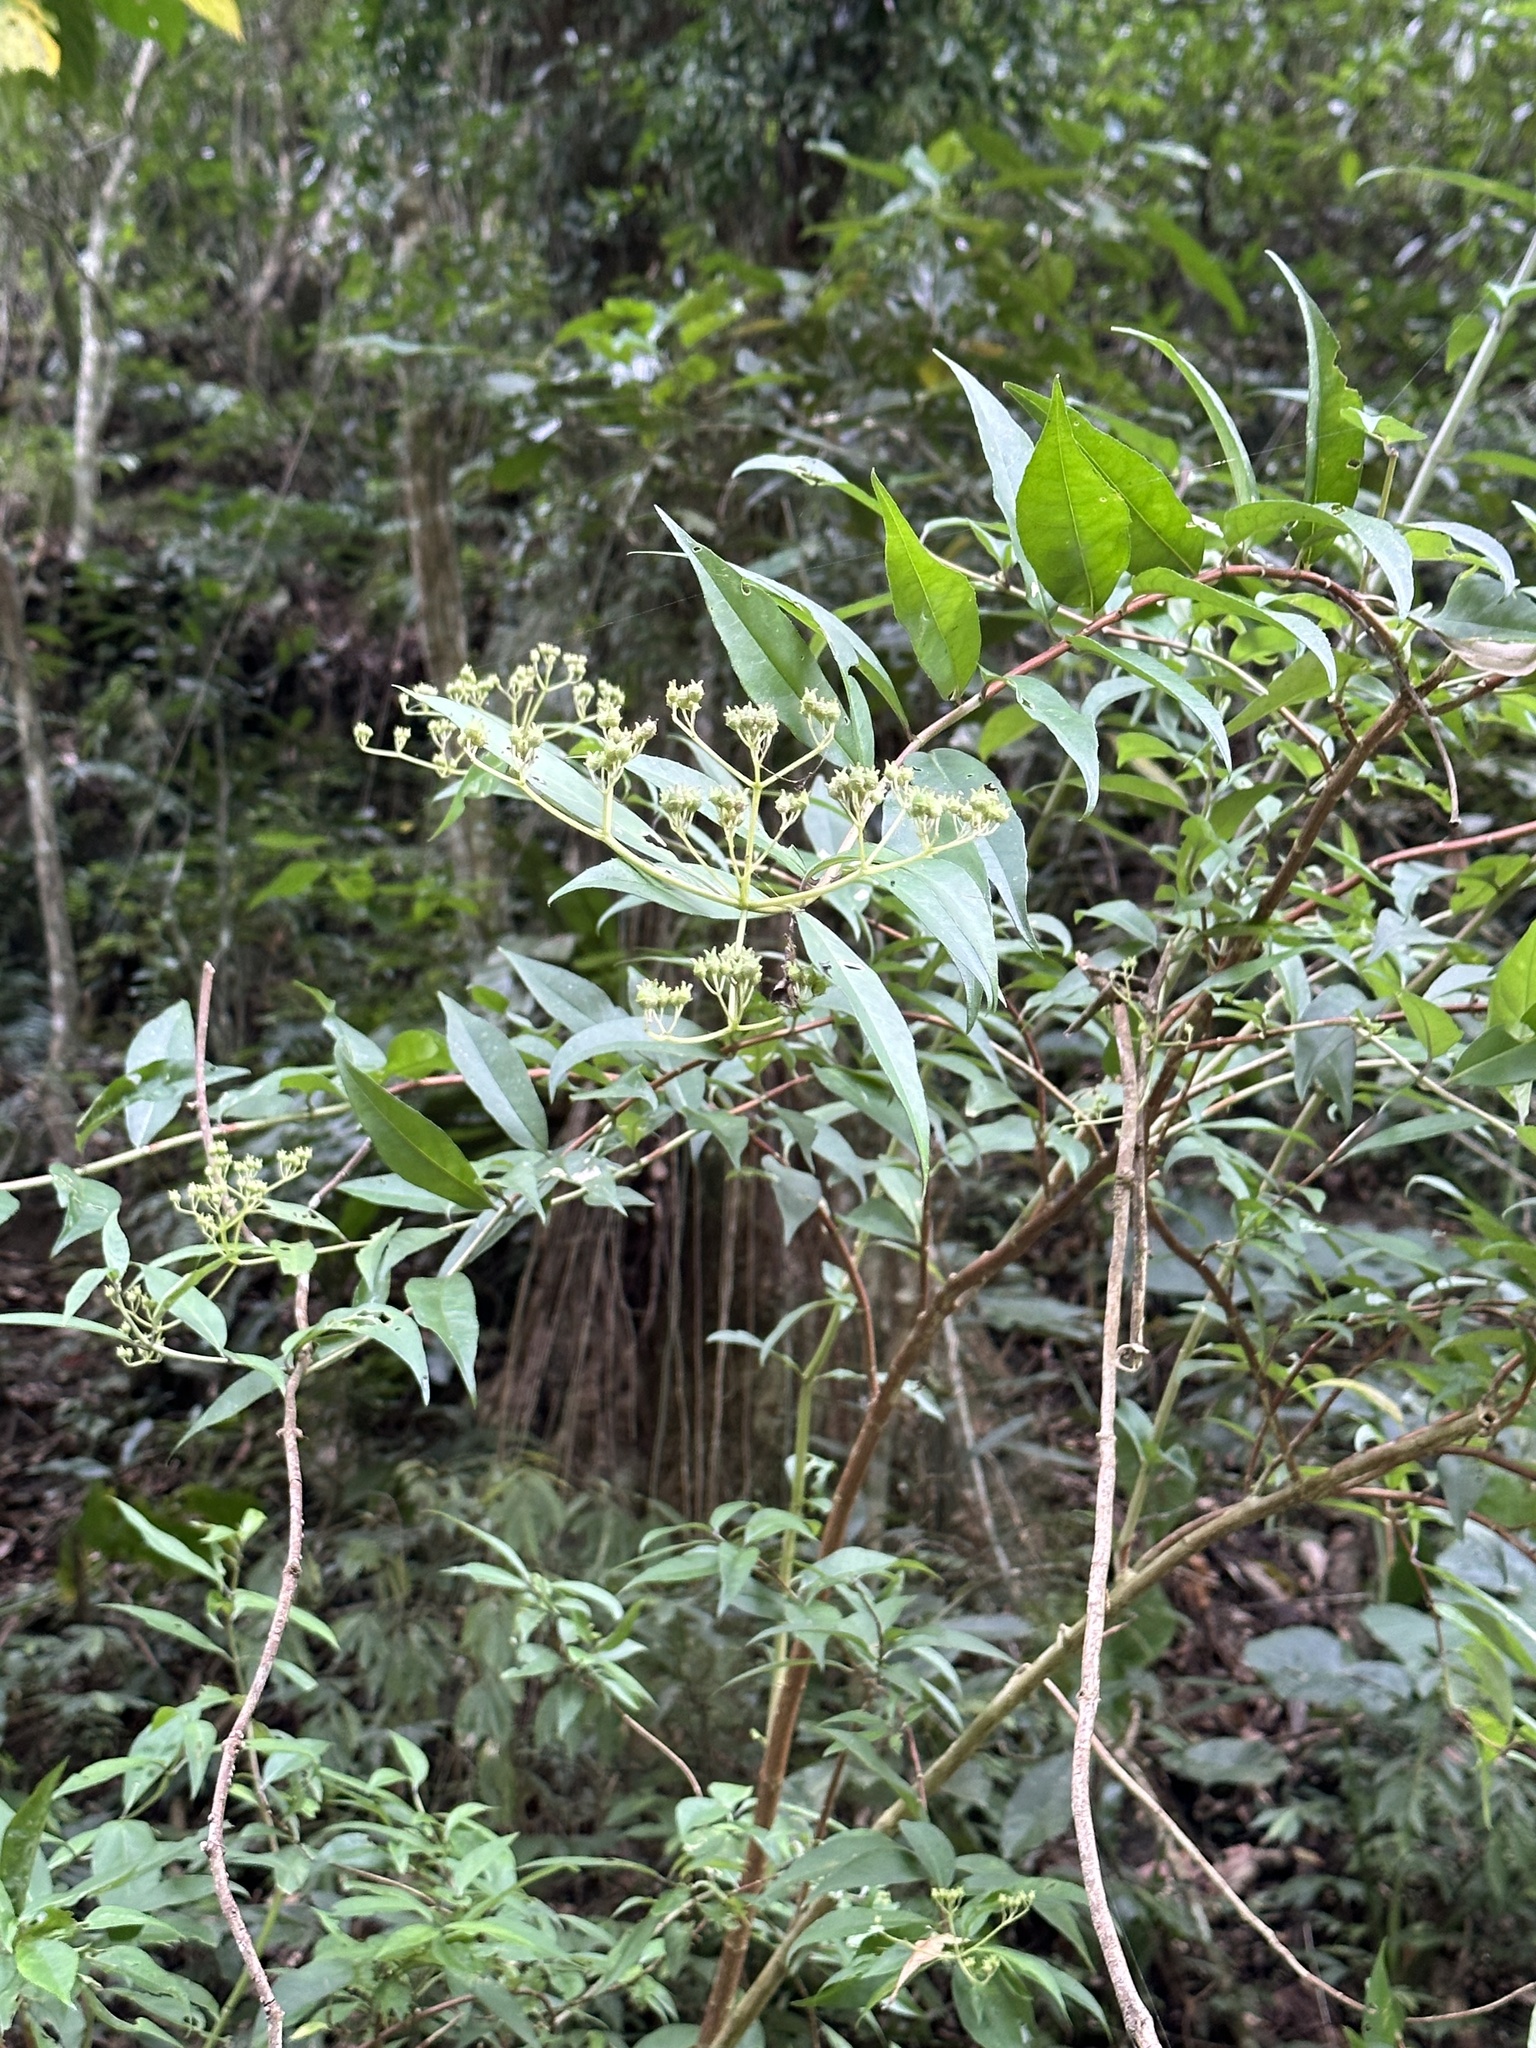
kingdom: Plantae
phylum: Tracheophyta
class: Magnoliopsida
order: Cornales
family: Hydrangeaceae
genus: Hydrangea
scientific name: Hydrangea chinensis
